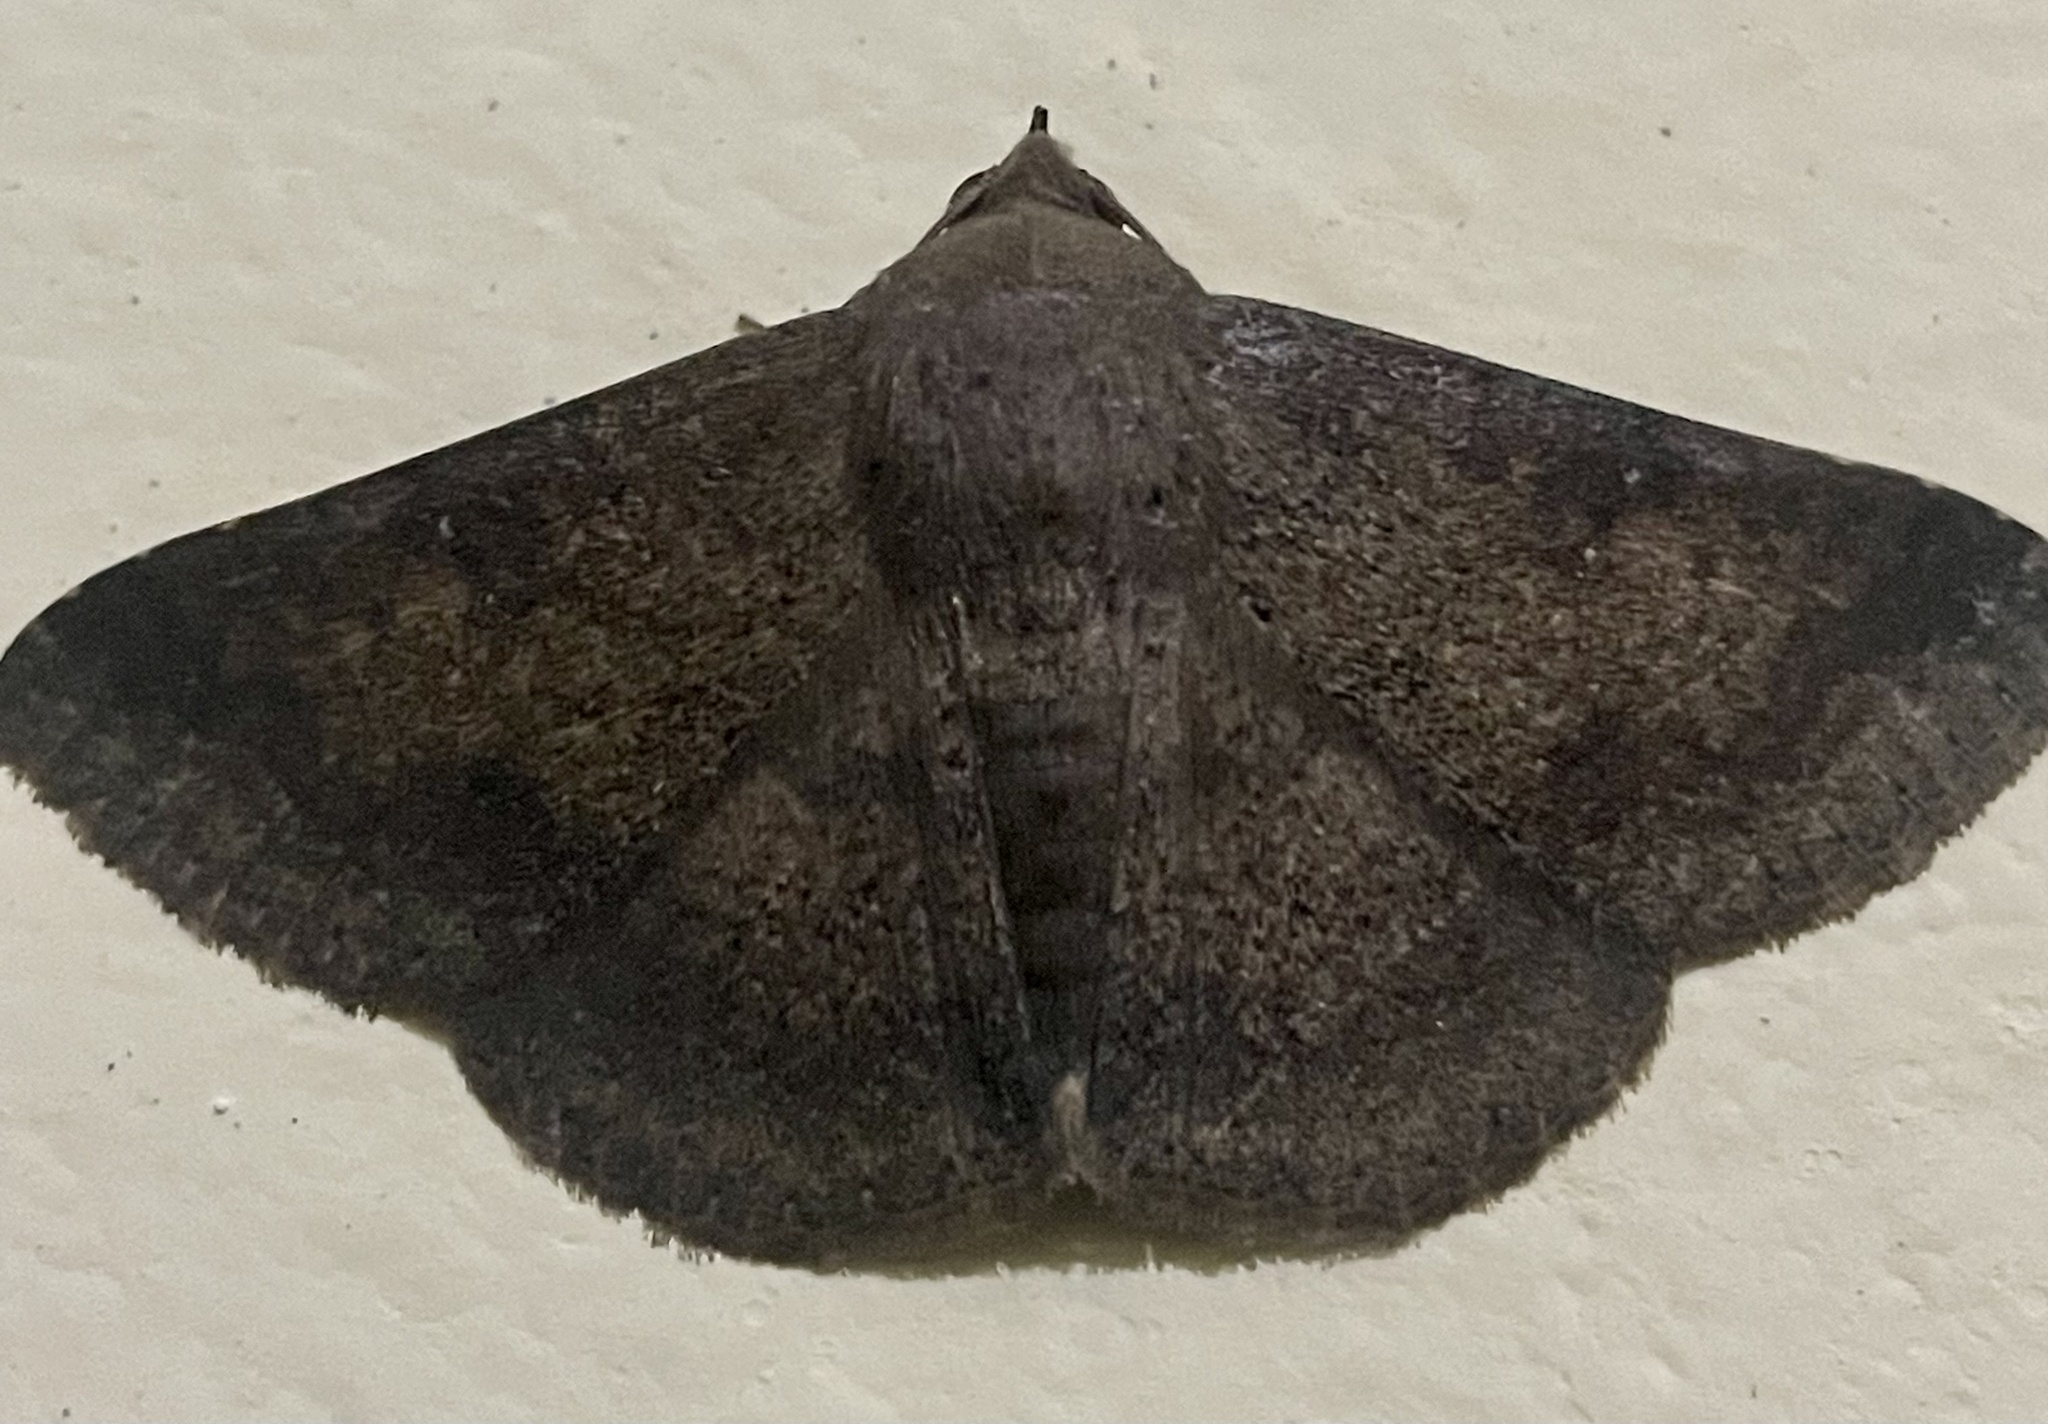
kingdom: Animalia
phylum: Arthropoda
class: Insecta
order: Lepidoptera
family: Erebidae
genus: Ericeia
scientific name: Ericeia inangulata
